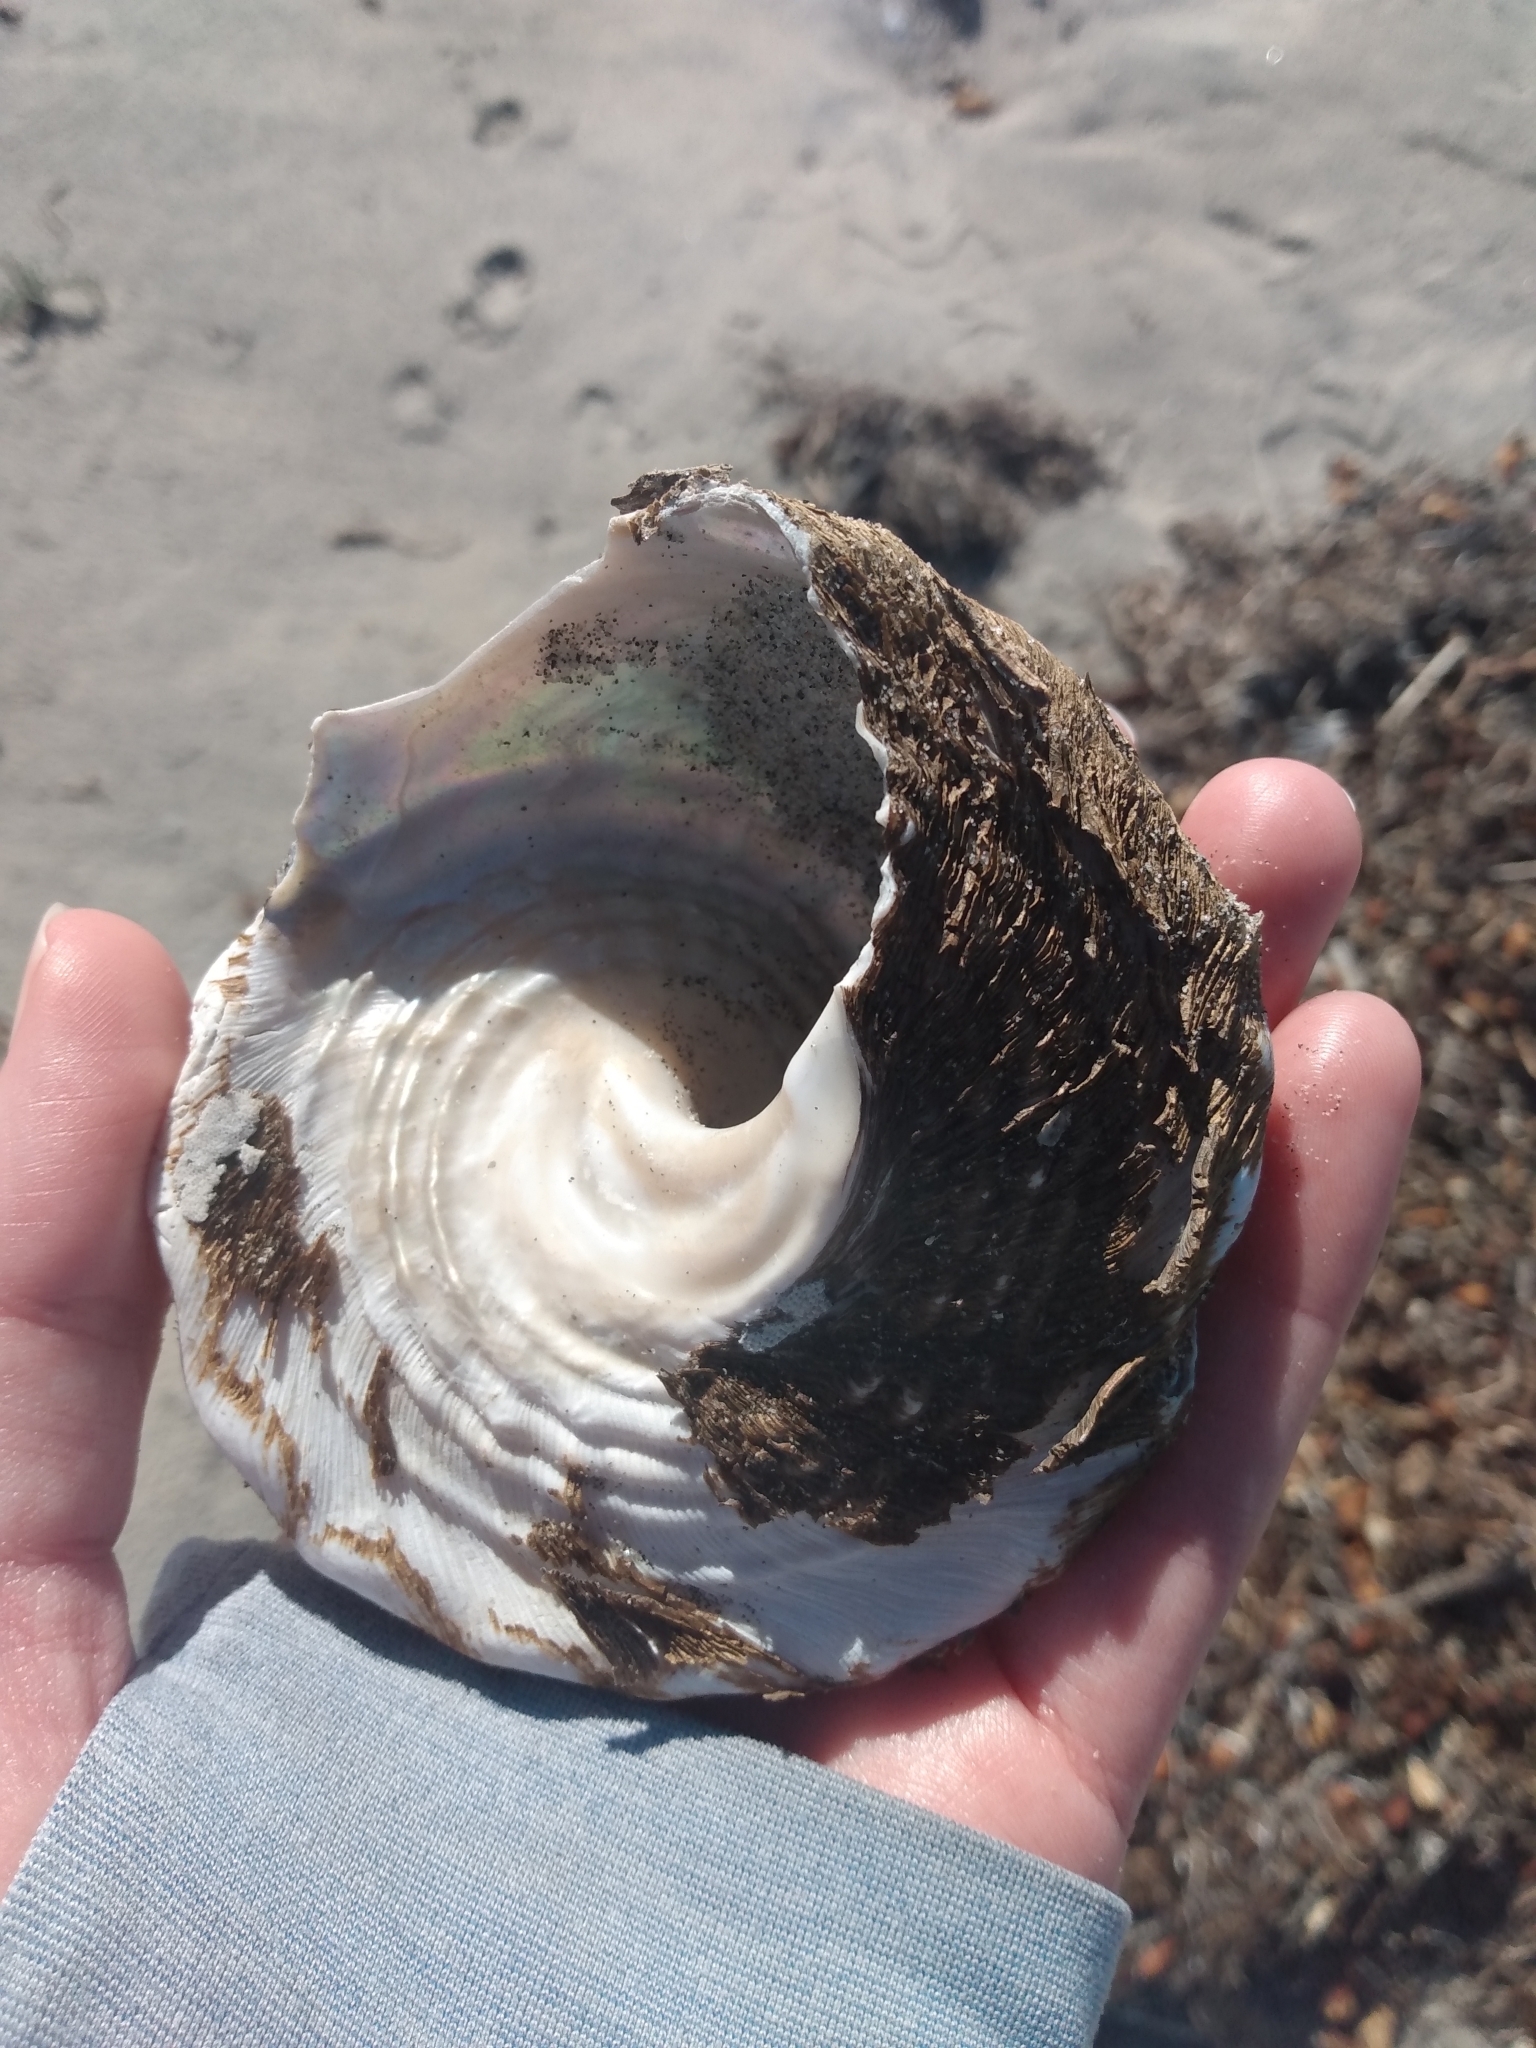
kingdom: Animalia
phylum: Mollusca
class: Gastropoda
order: Trochida
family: Turbinidae
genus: Megastraea
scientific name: Megastraea undosa
